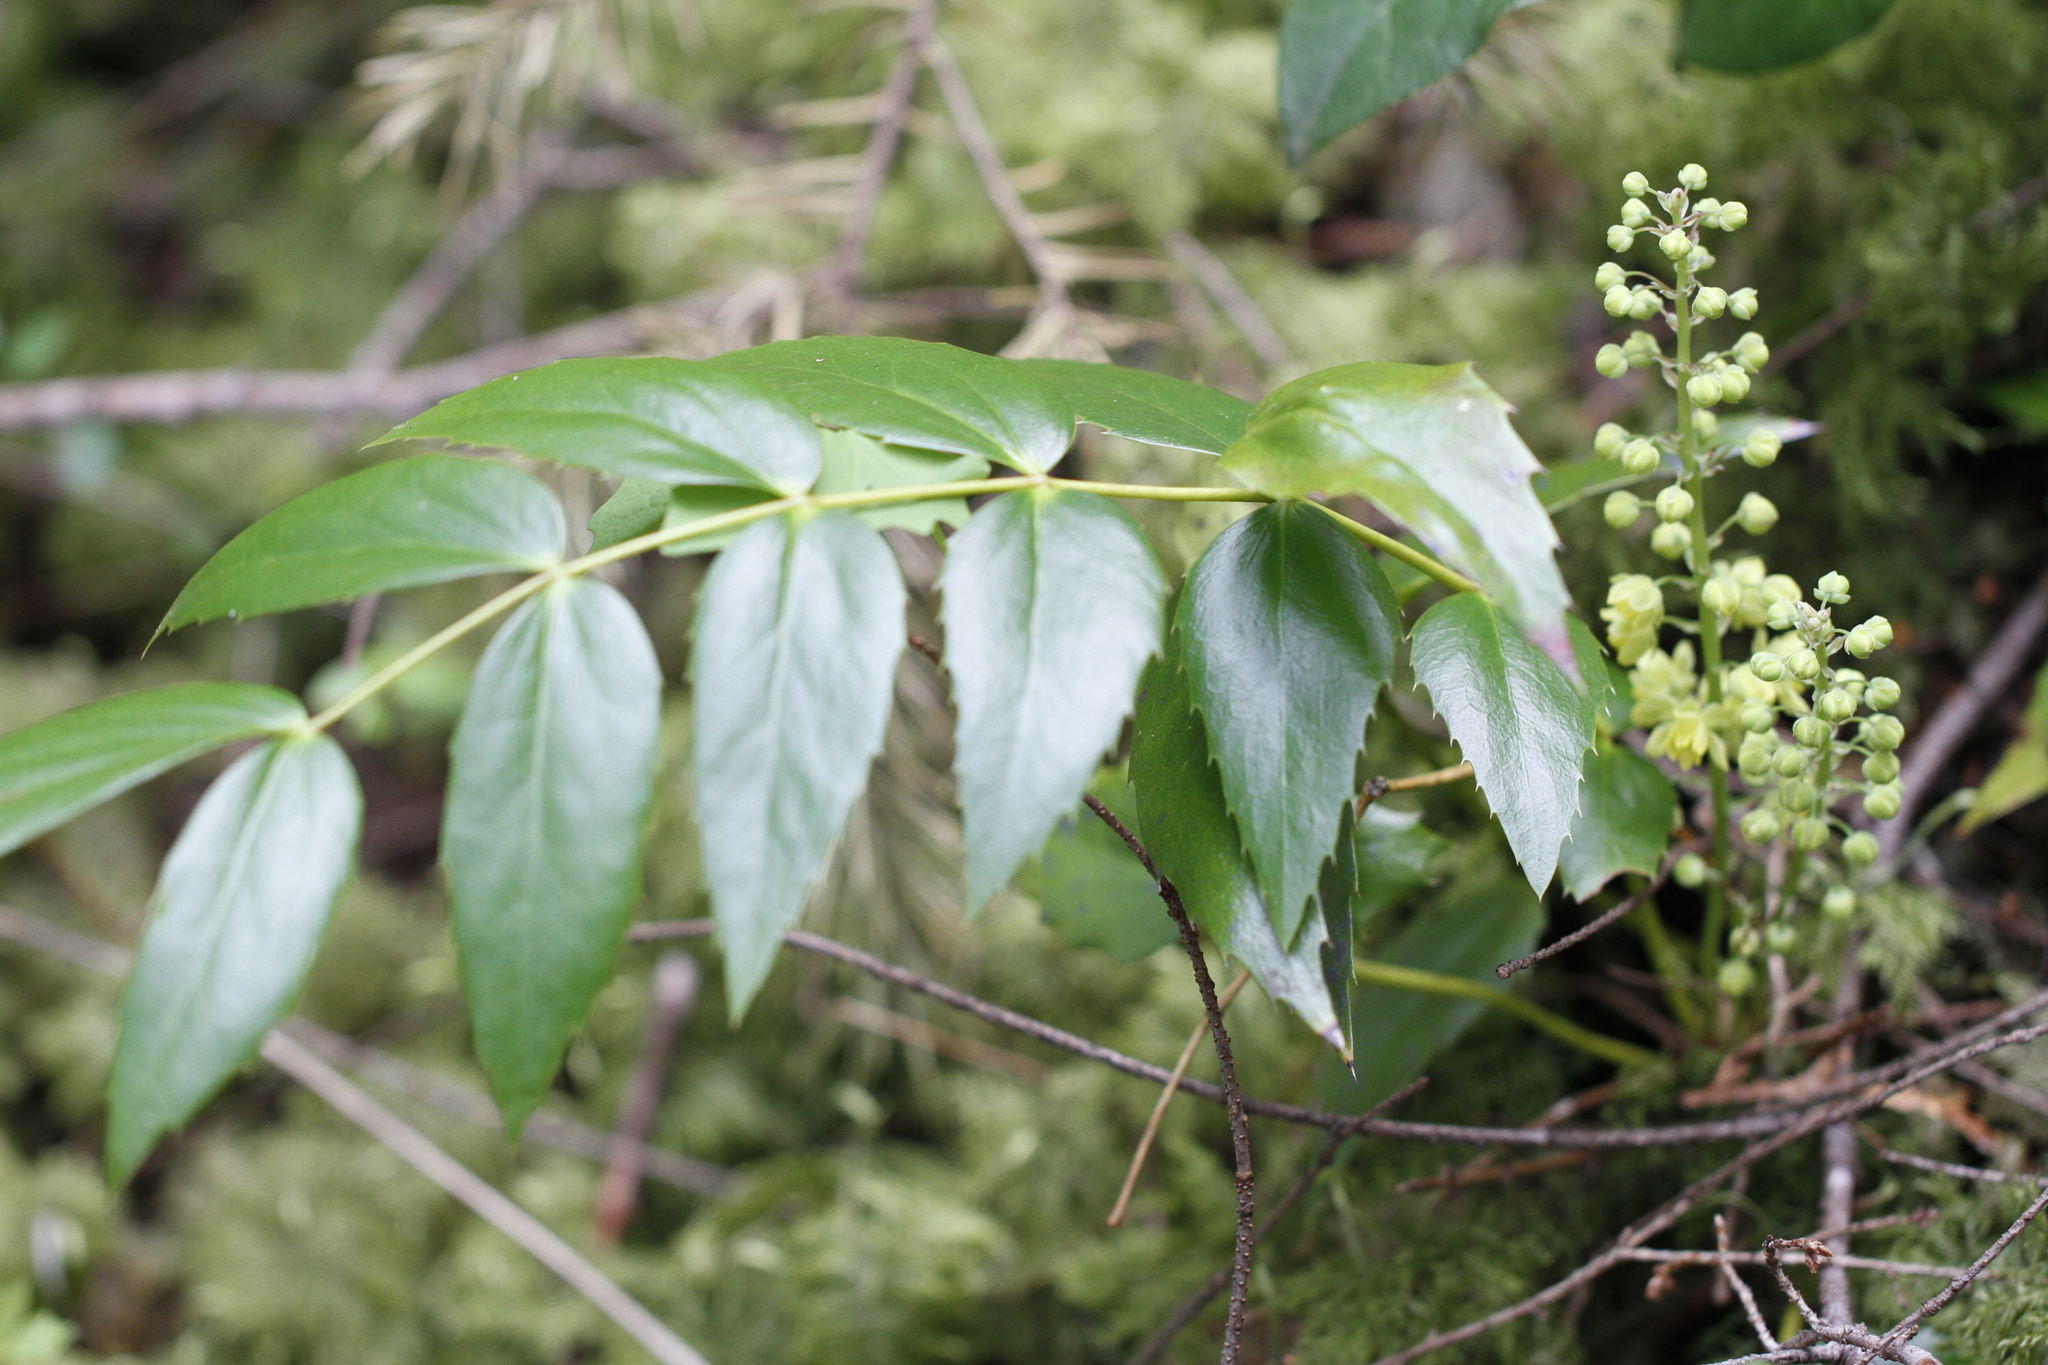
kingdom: Plantae
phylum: Tracheophyta
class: Magnoliopsida
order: Ranunculales
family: Berberidaceae
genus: Mahonia
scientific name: Mahonia nervosa
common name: Cascade oregon-grape
